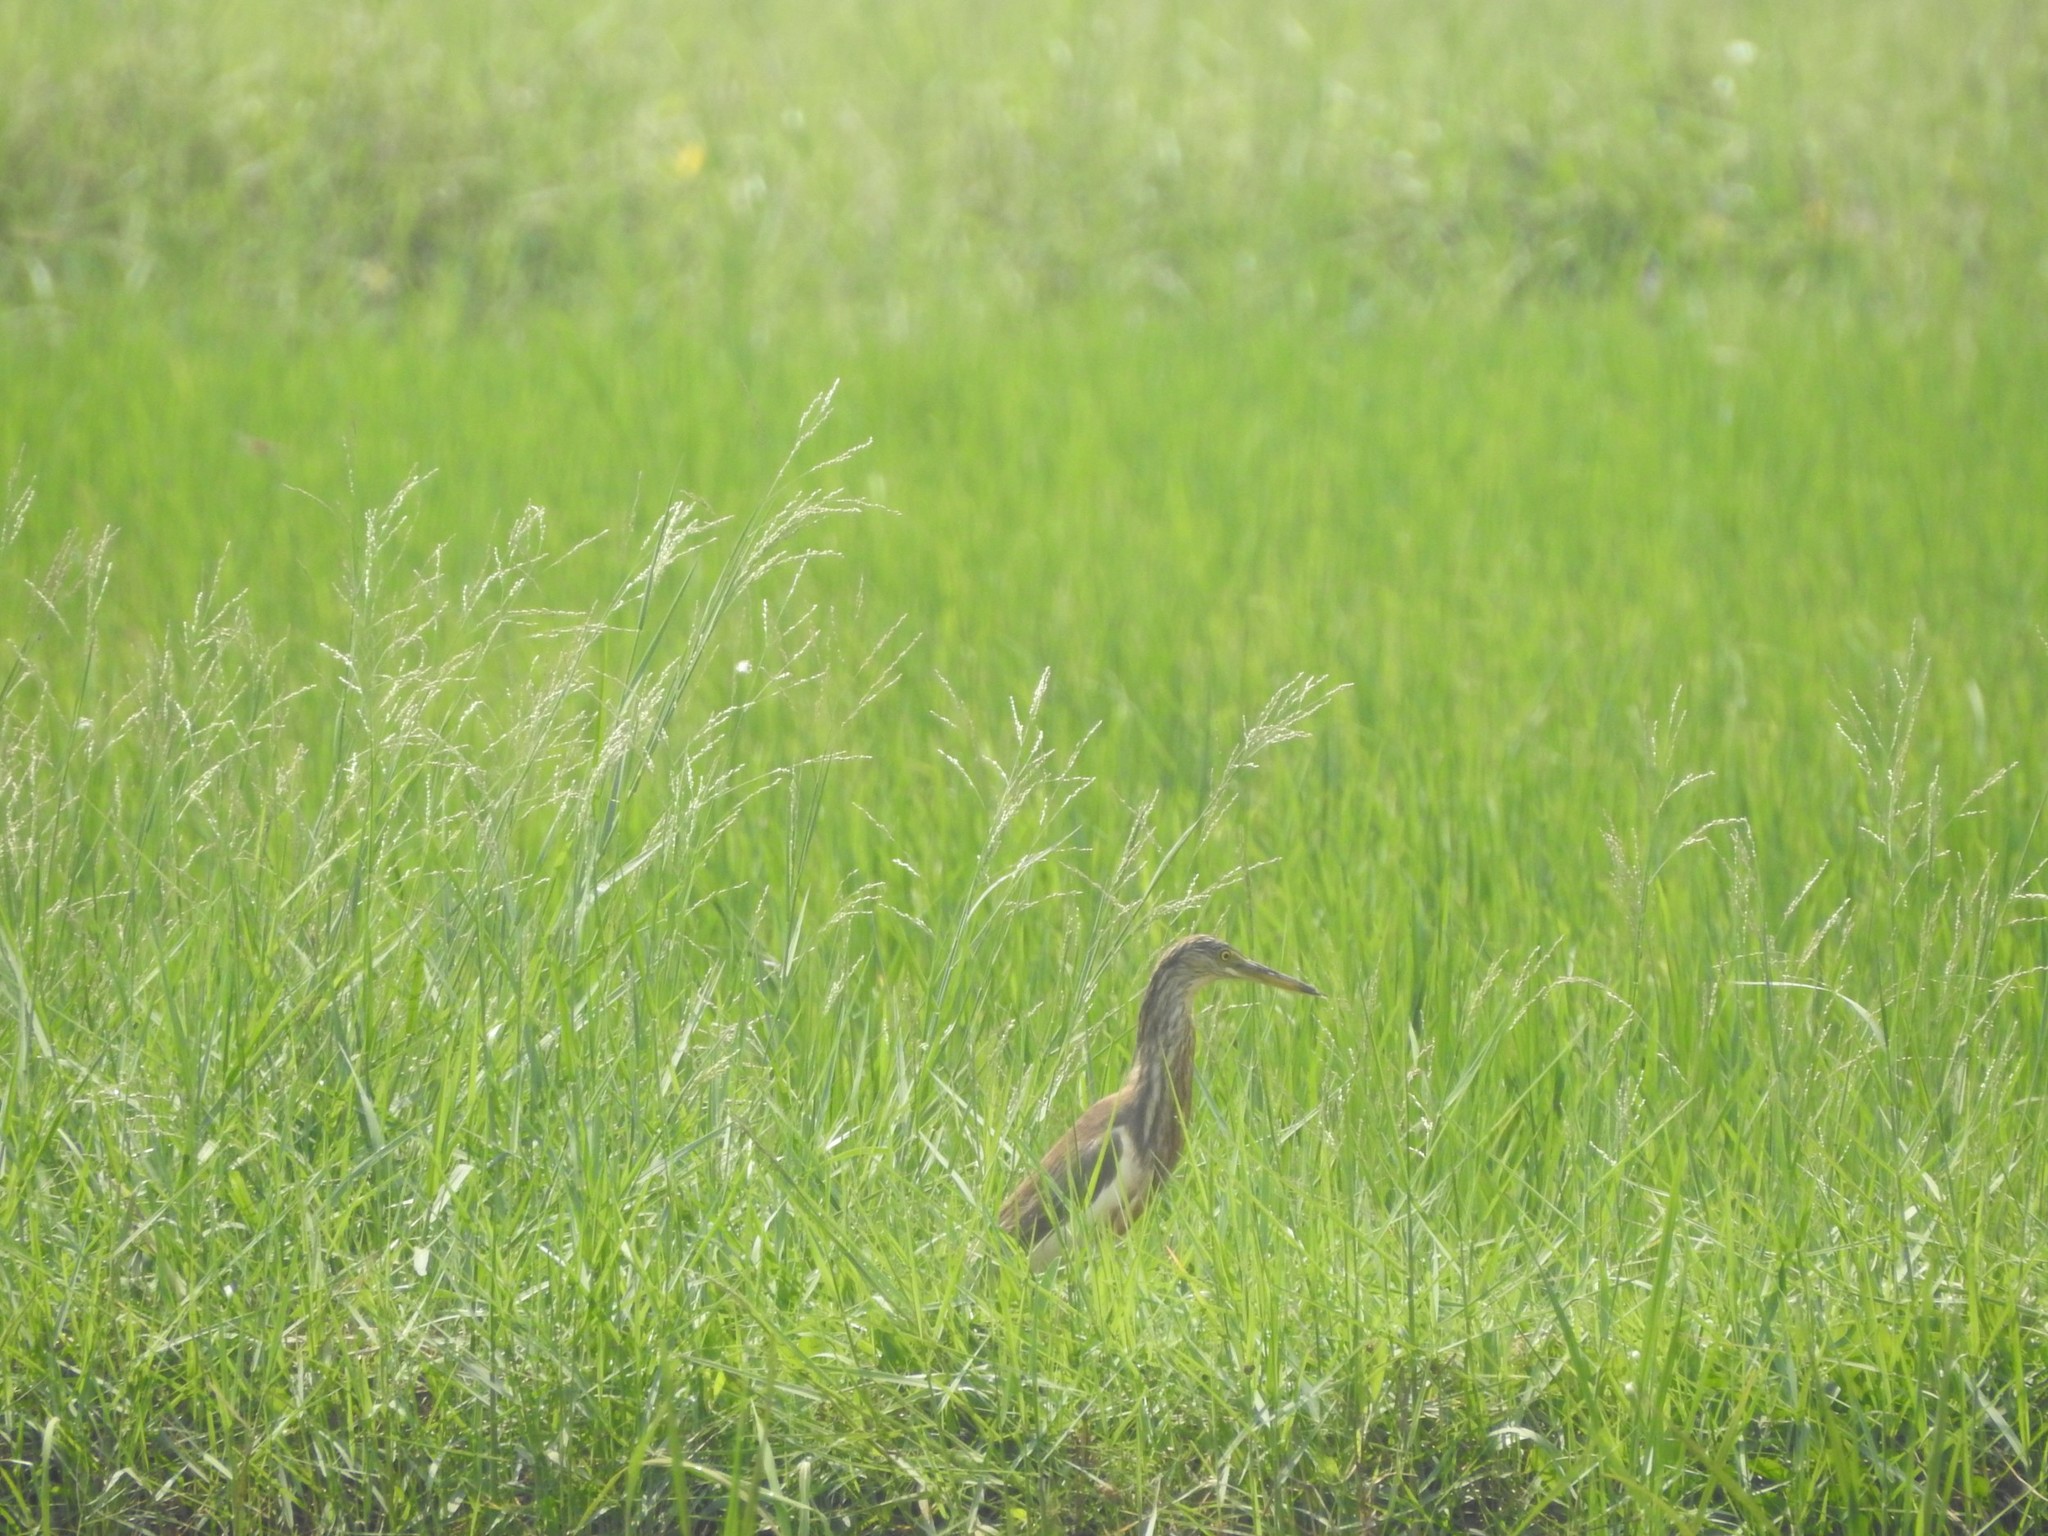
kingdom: Animalia
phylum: Chordata
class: Aves
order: Pelecaniformes
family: Ardeidae
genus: Ardeola
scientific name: Ardeola grayii
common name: Indian pond heron
